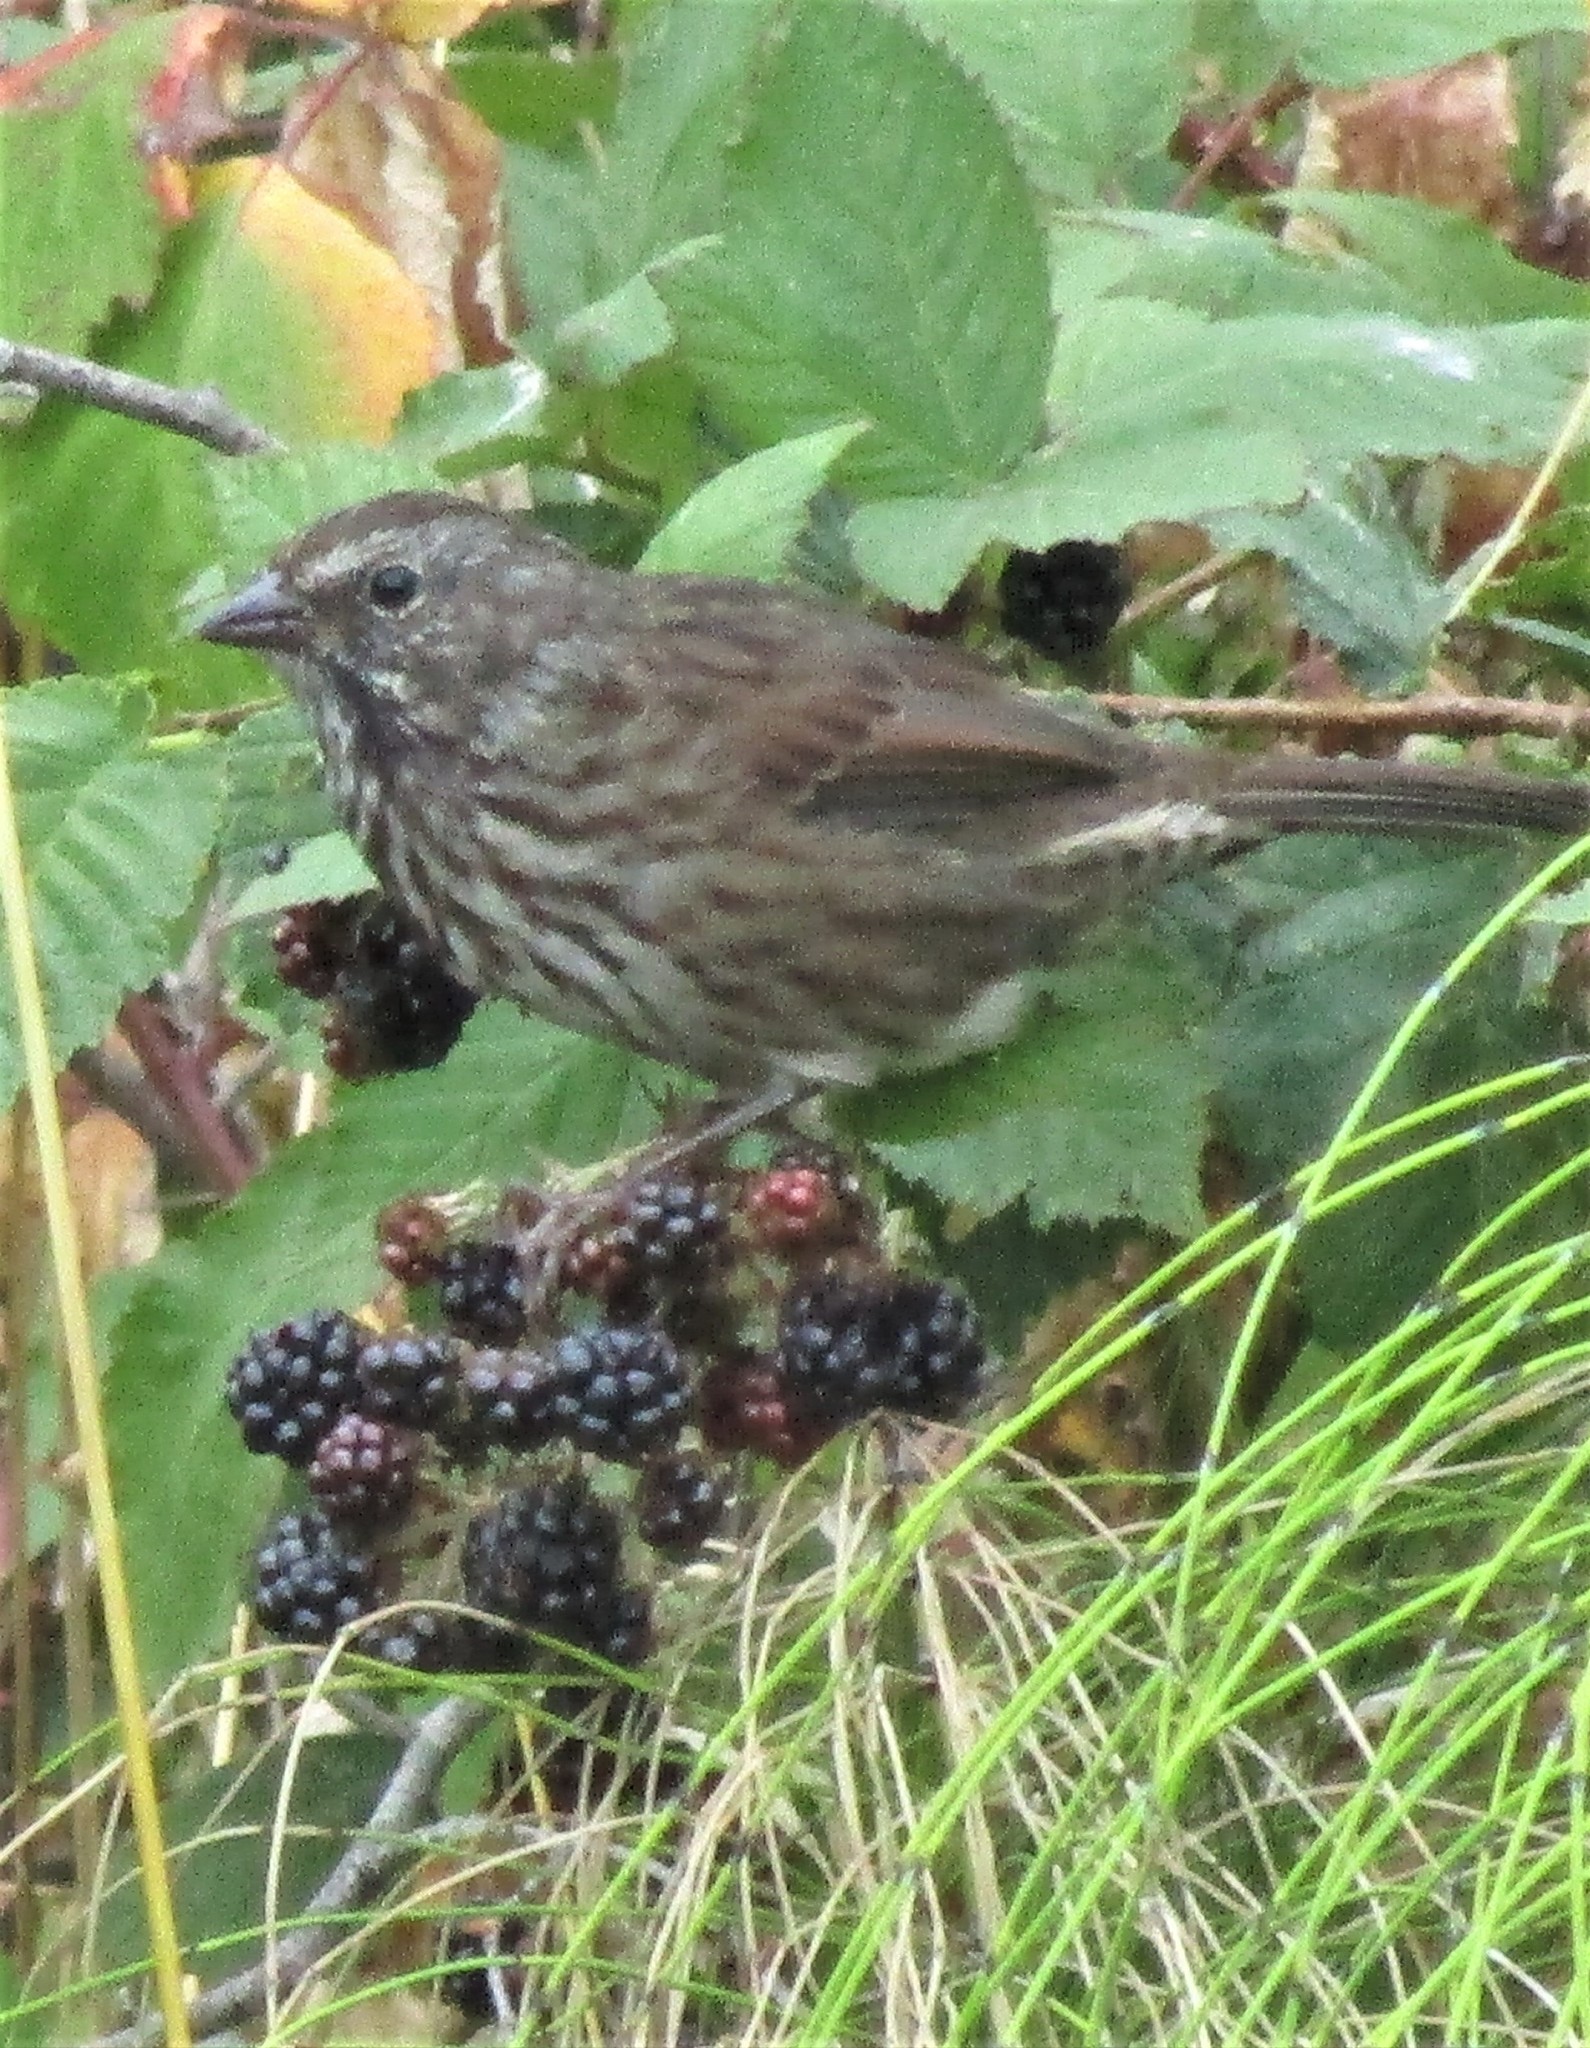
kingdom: Animalia
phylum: Chordata
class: Aves
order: Passeriformes
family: Passerellidae
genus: Melospiza
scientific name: Melospiza melodia
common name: Song sparrow
